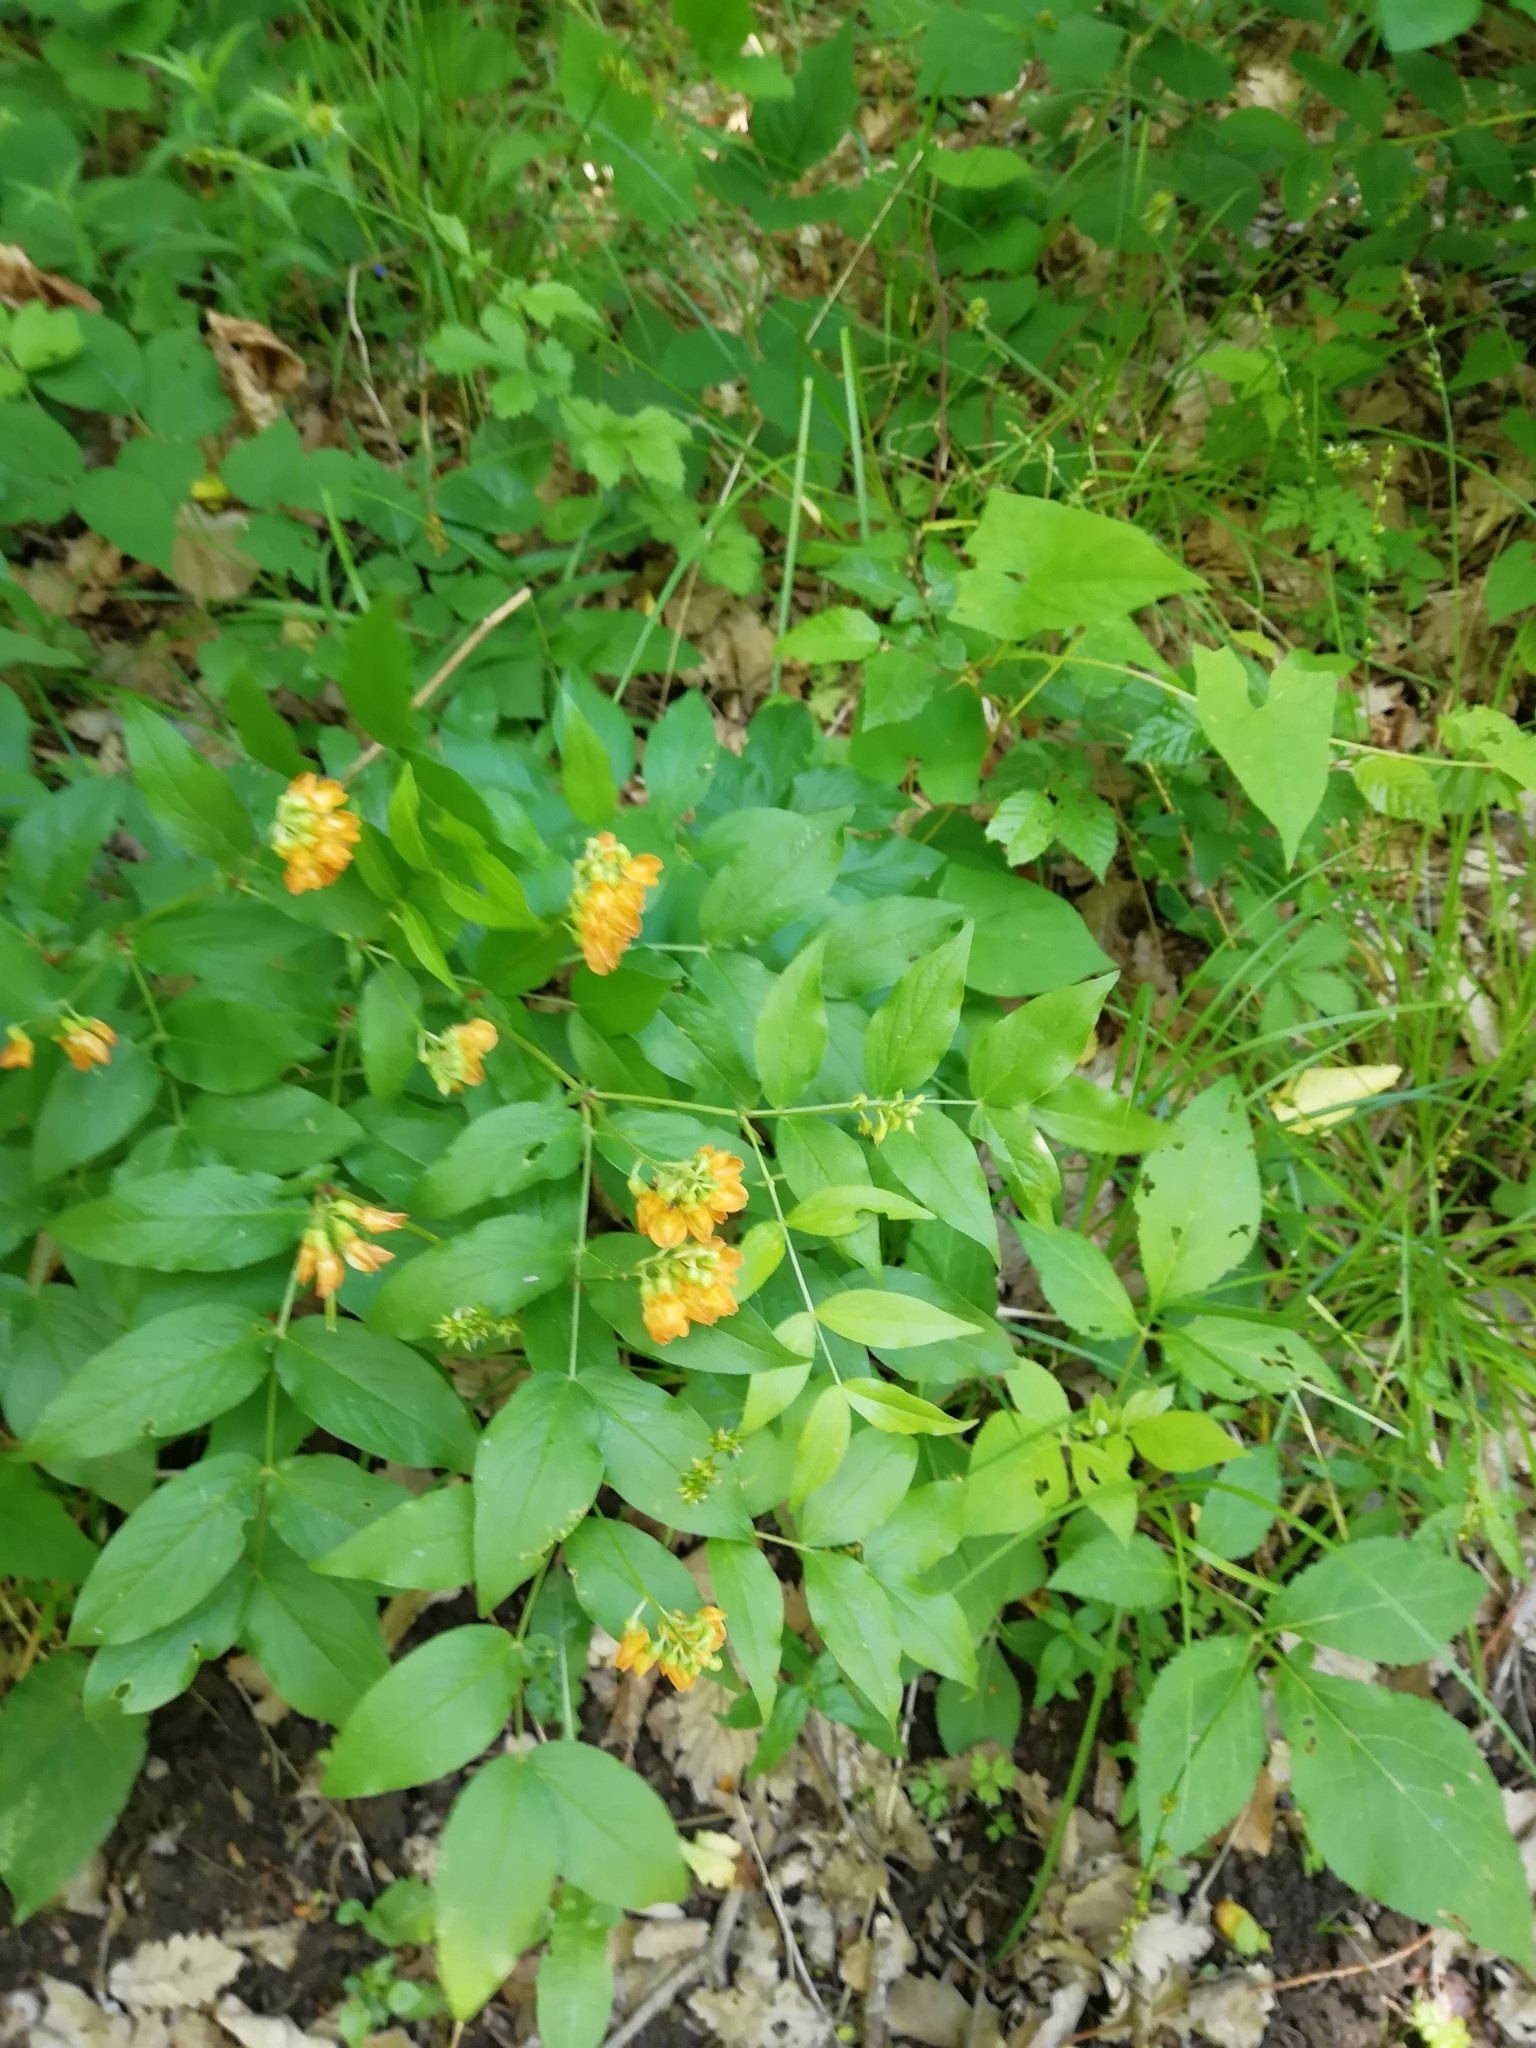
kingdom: Plantae
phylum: Tracheophyta
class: Magnoliopsida
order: Fabales
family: Fabaceae
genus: Lathyrus
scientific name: Lathyrus aureus
